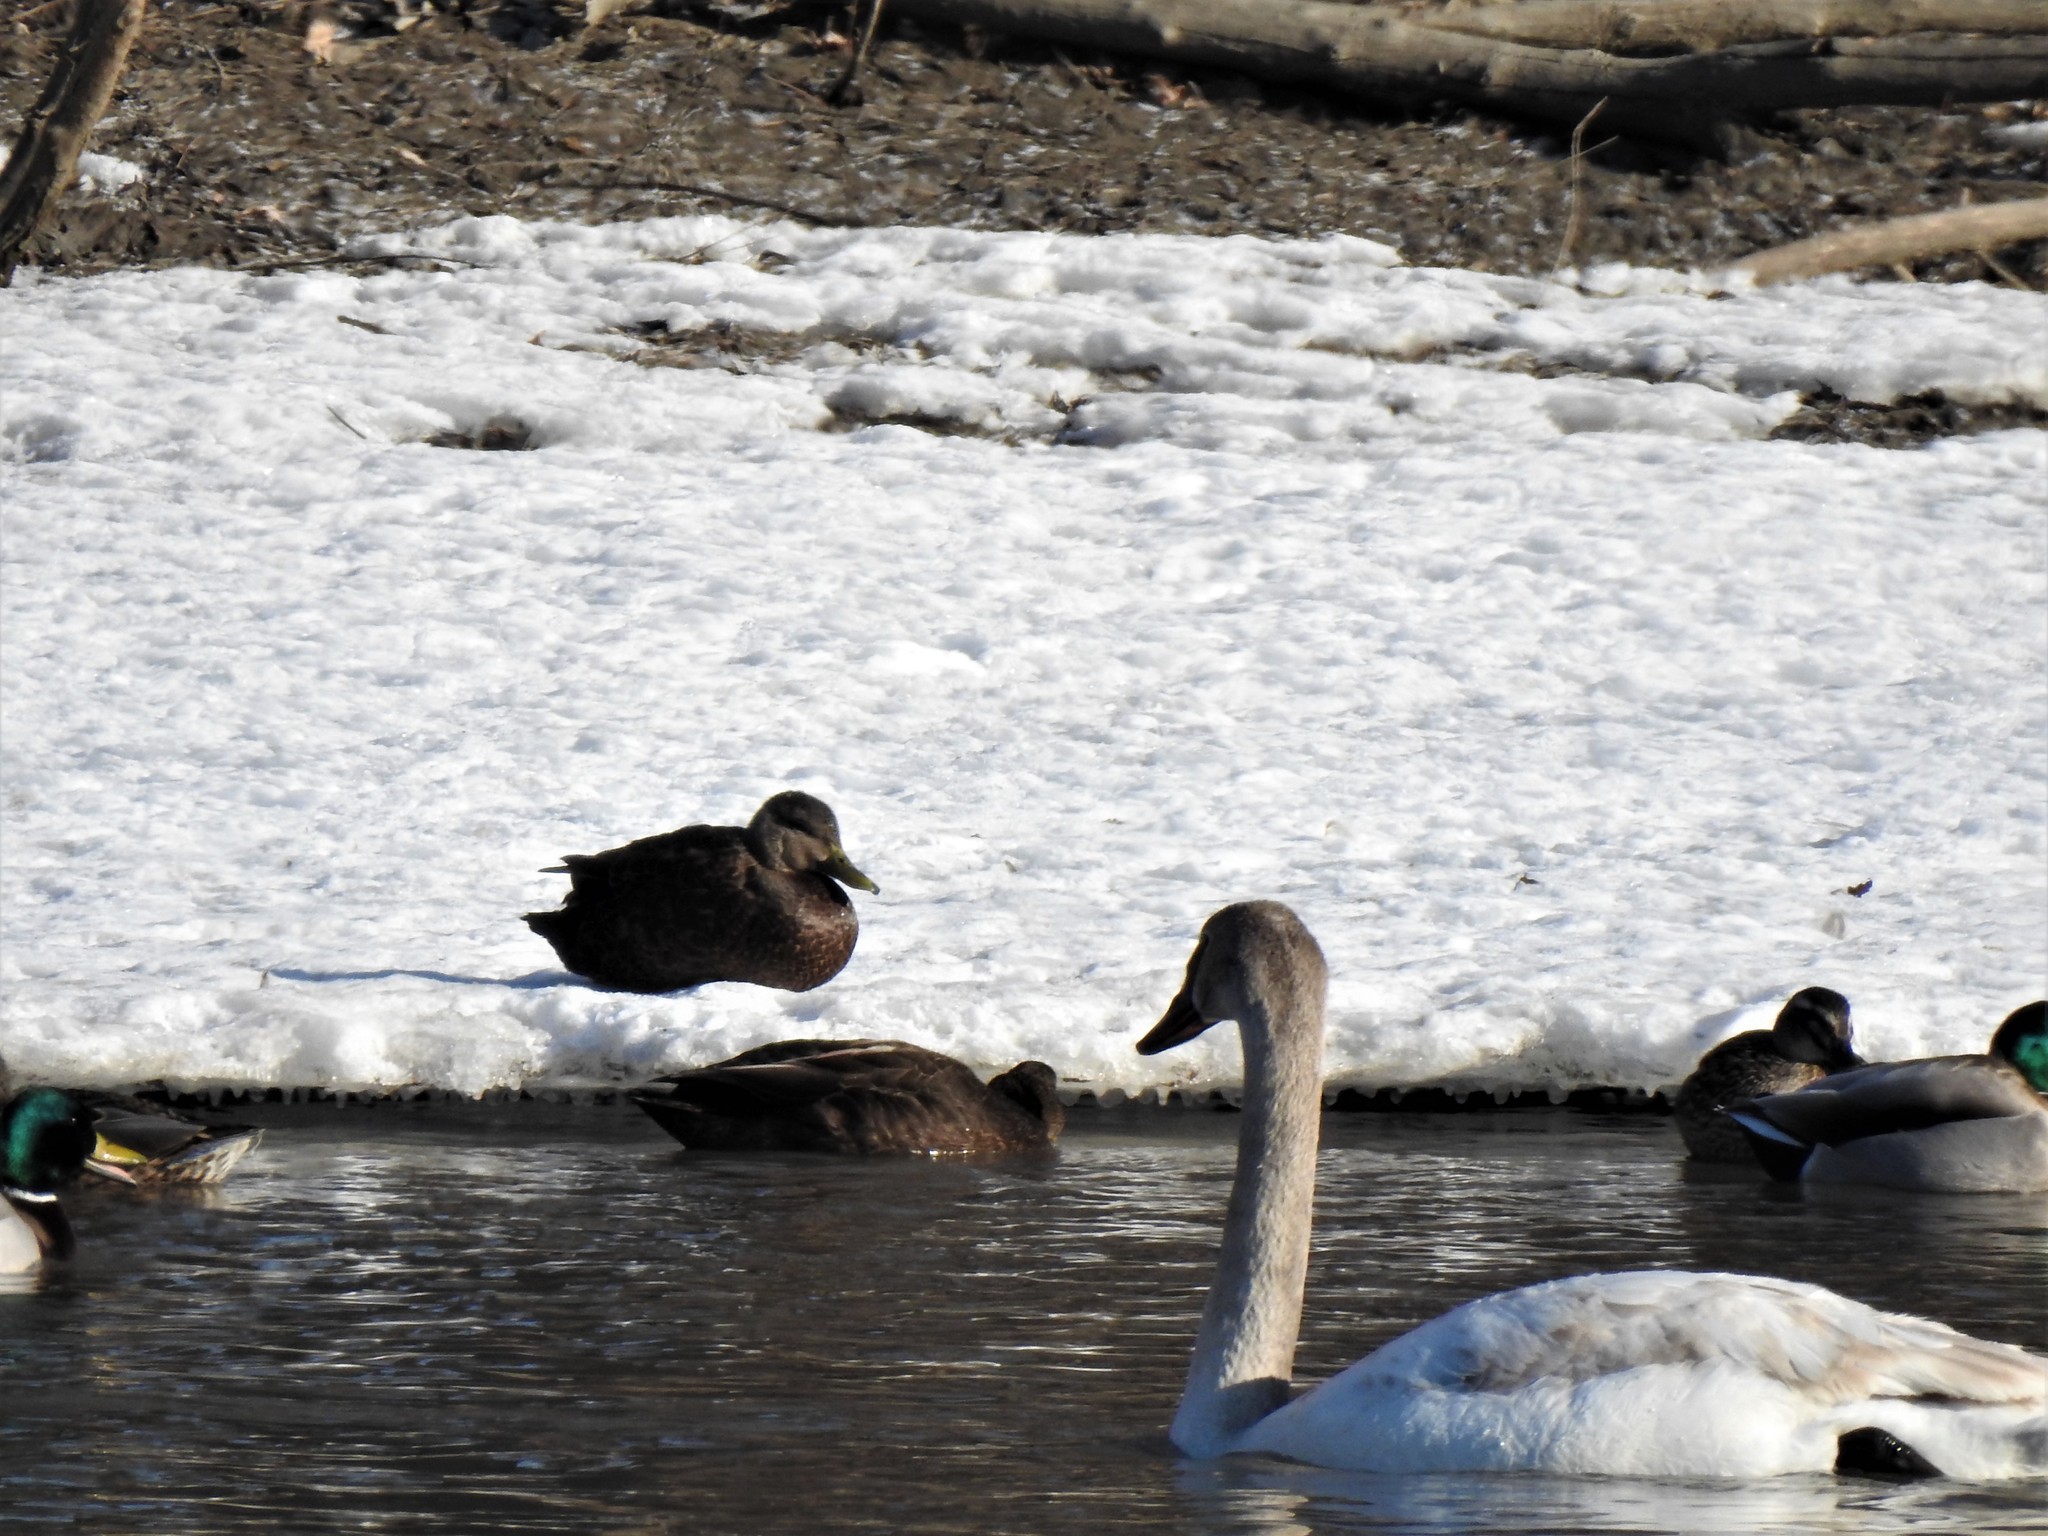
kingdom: Animalia
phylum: Chordata
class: Aves
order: Anseriformes
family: Anatidae
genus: Anas
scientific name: Anas rubripes
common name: American black duck
